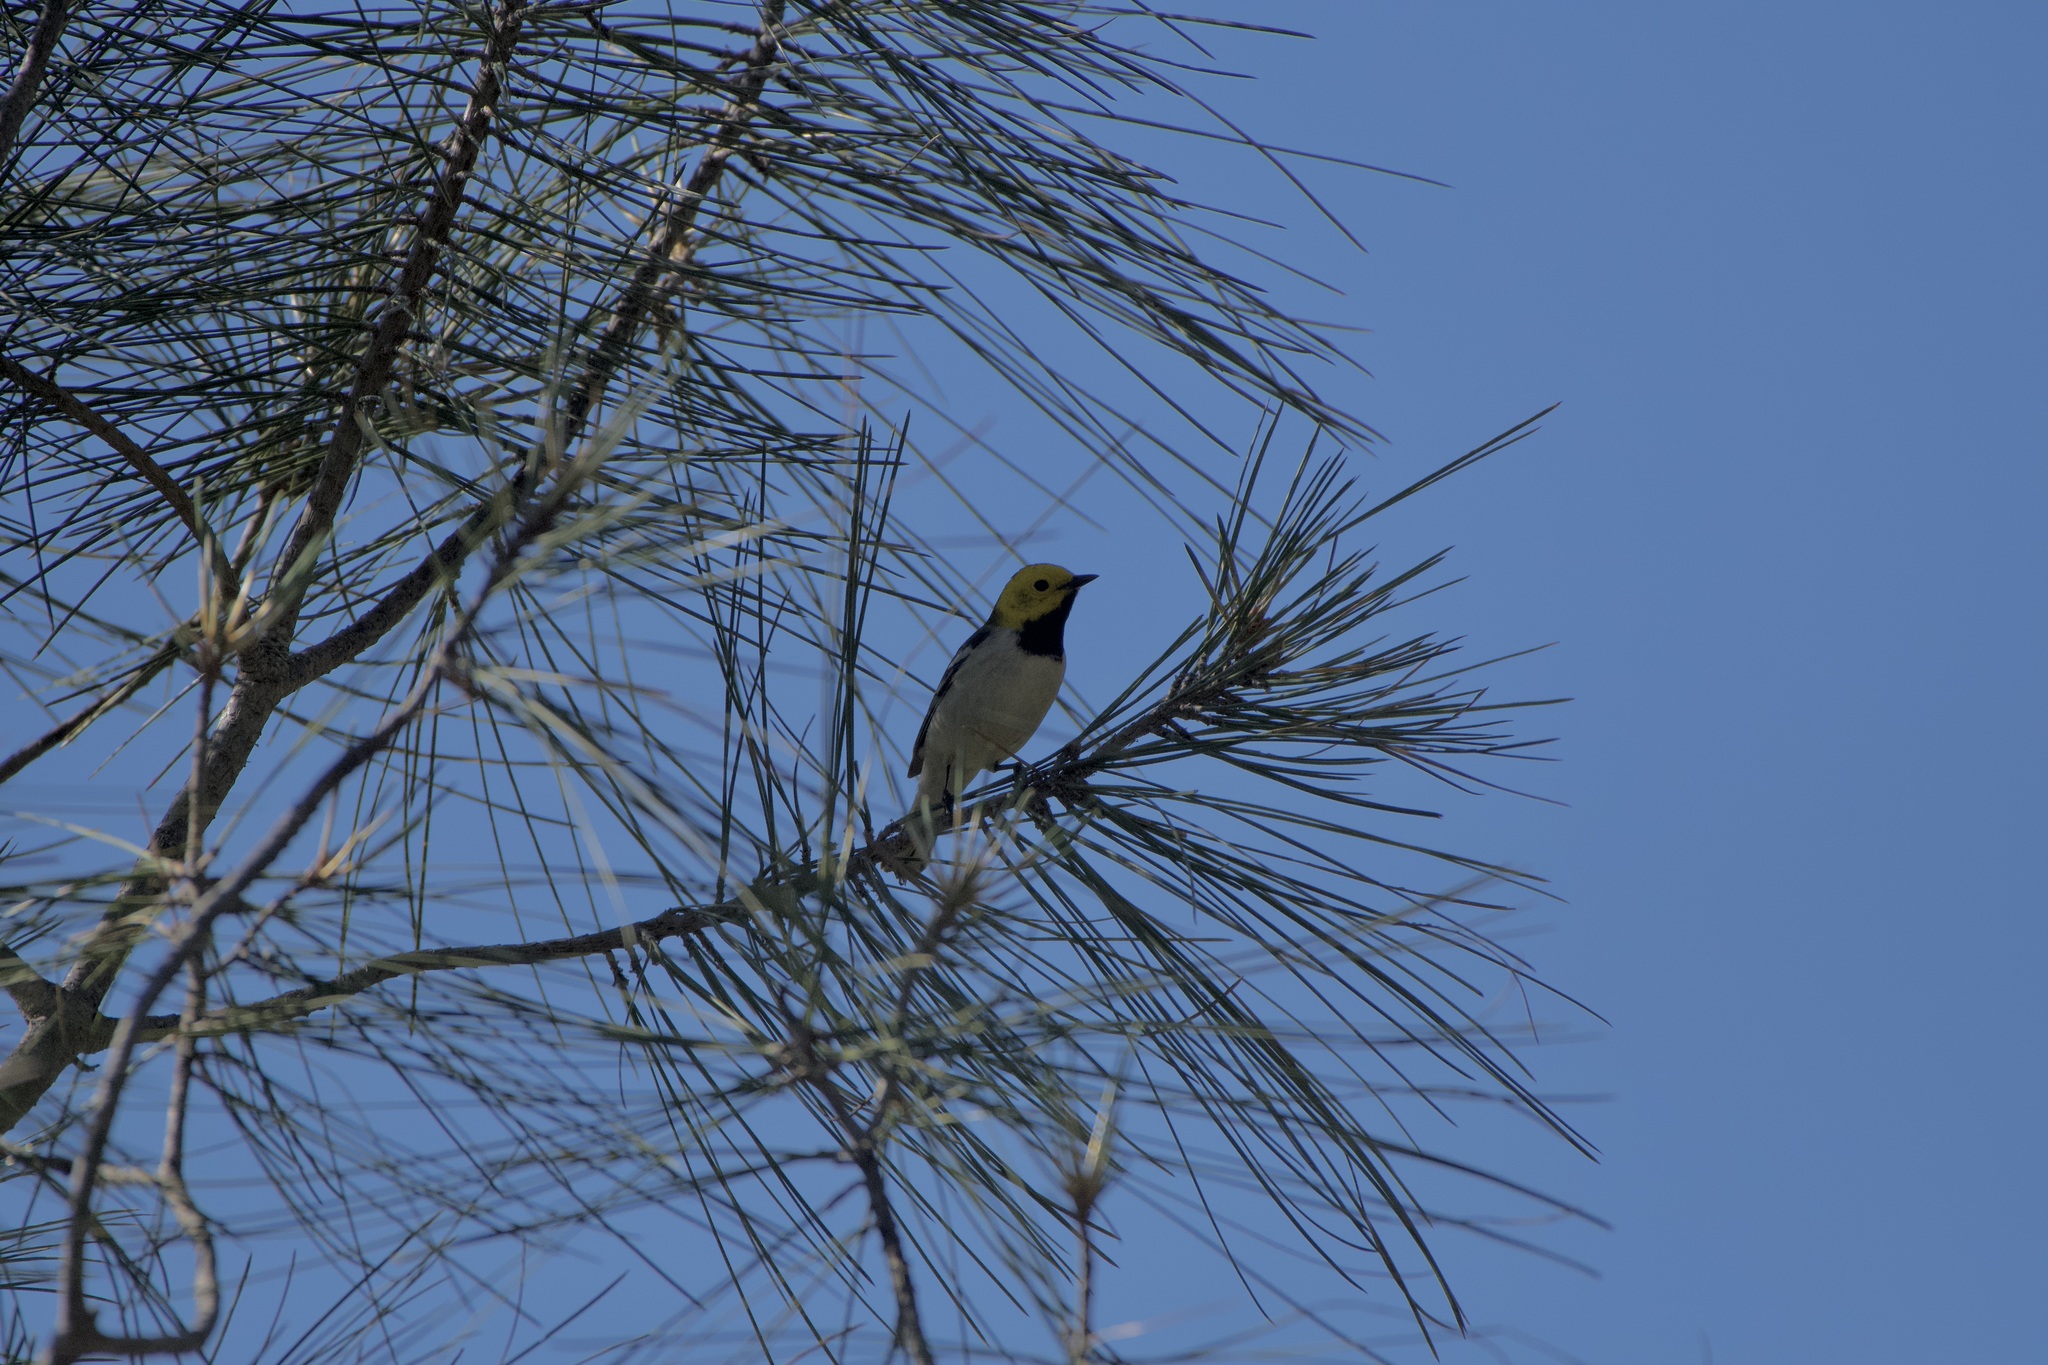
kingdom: Animalia
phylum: Chordata
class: Aves
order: Passeriformes
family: Parulidae
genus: Setophaga
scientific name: Setophaga occidentalis
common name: Hermit warbler
